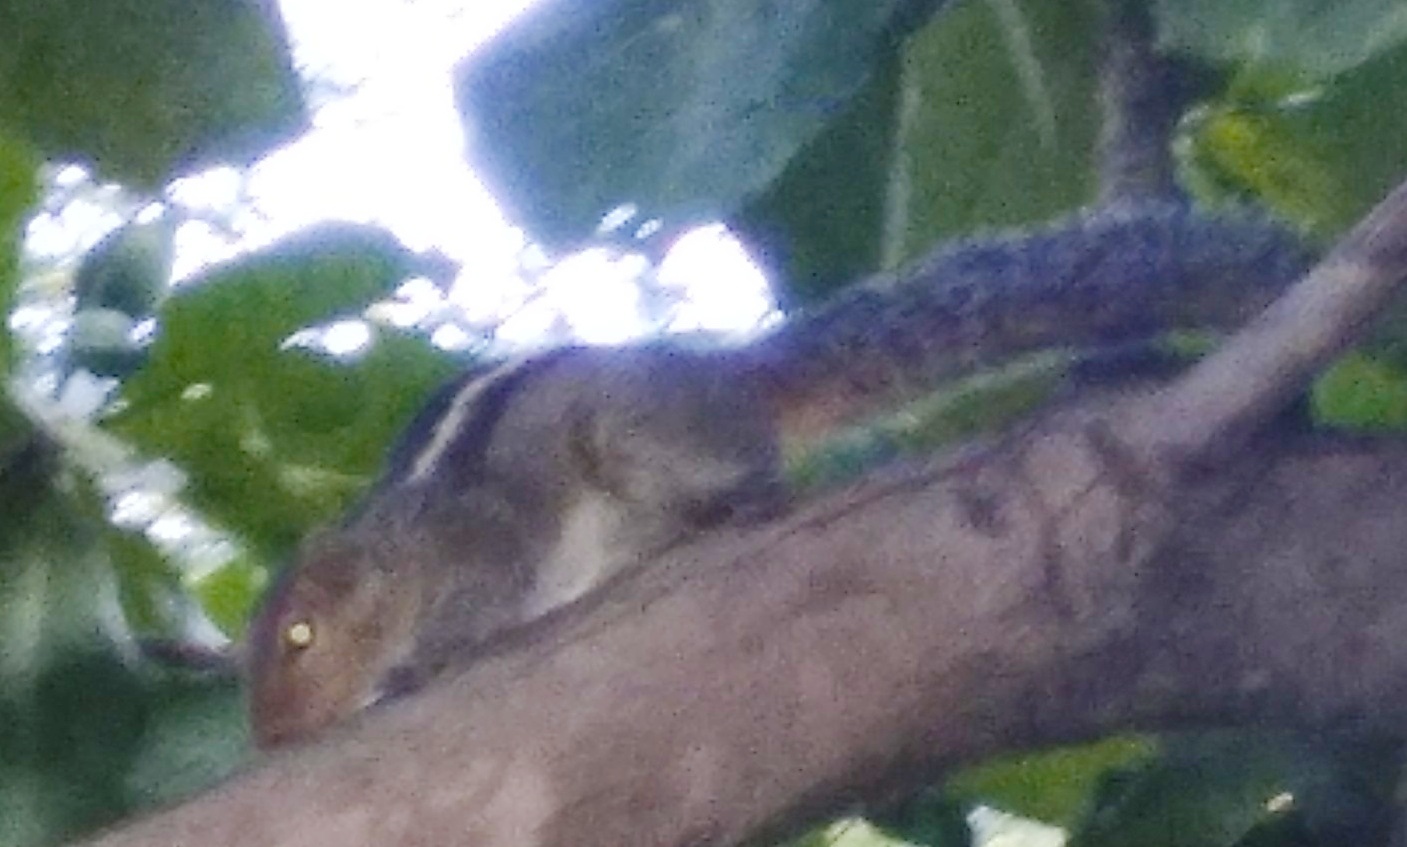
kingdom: Animalia
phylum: Chordata
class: Mammalia
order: Rodentia
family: Sciuridae
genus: Funambulus
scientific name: Funambulus tristriatus
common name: Jungle palm squirrel
